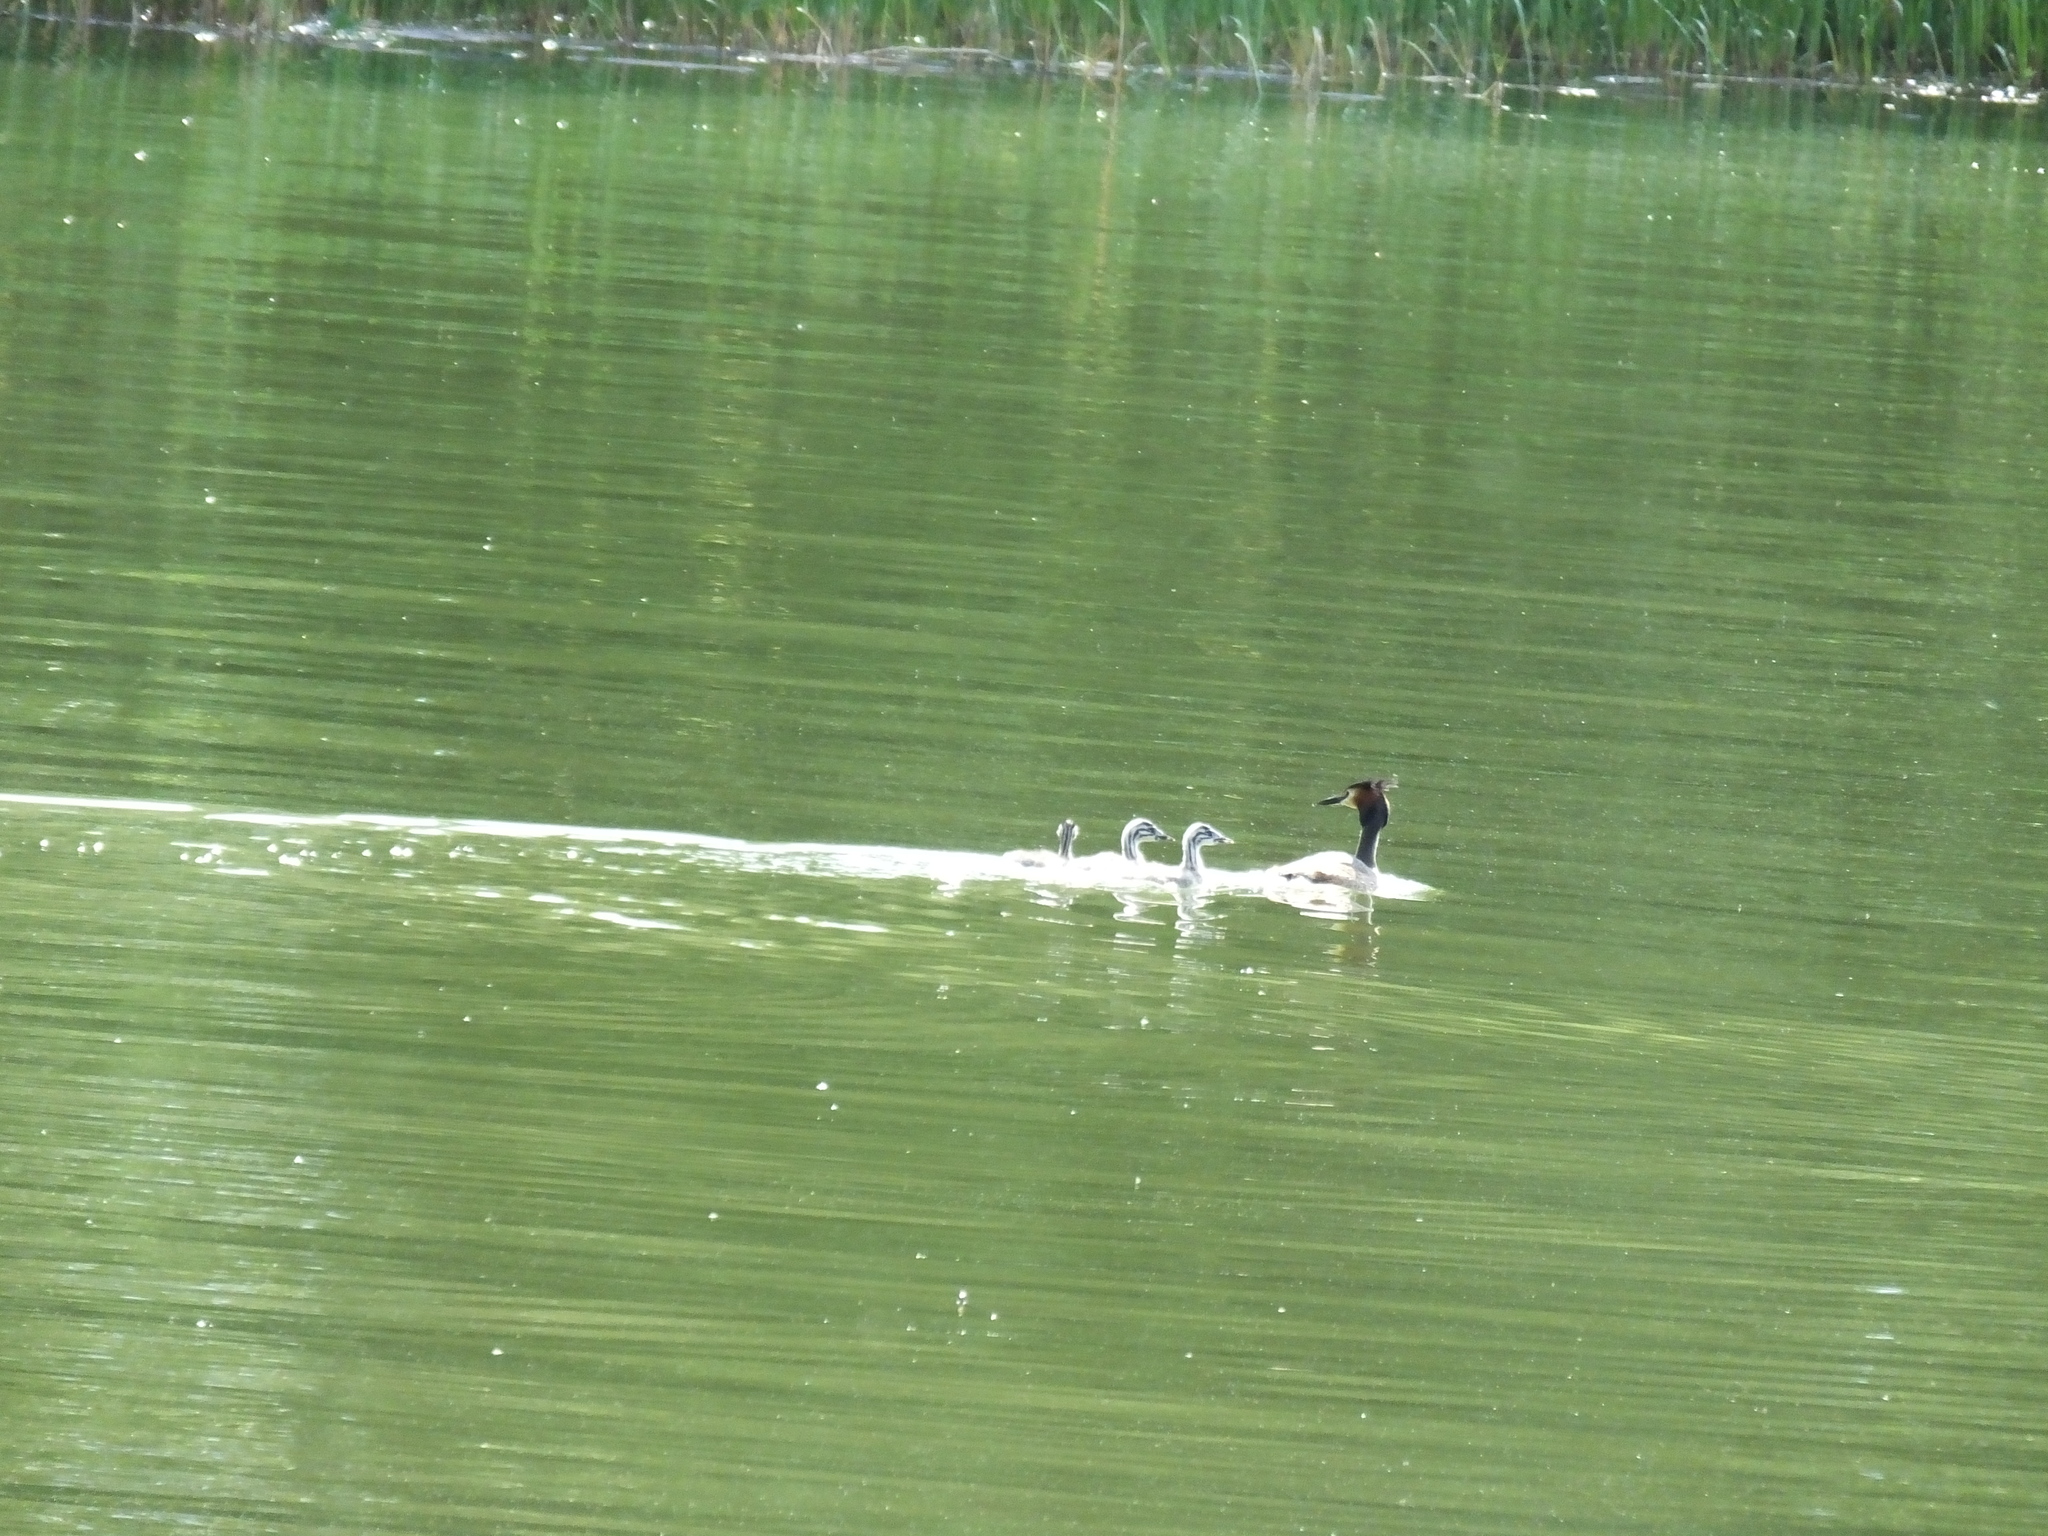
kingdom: Animalia
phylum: Chordata
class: Aves
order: Podicipediformes
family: Podicipedidae
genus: Podiceps
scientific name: Podiceps cristatus
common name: Great crested grebe
